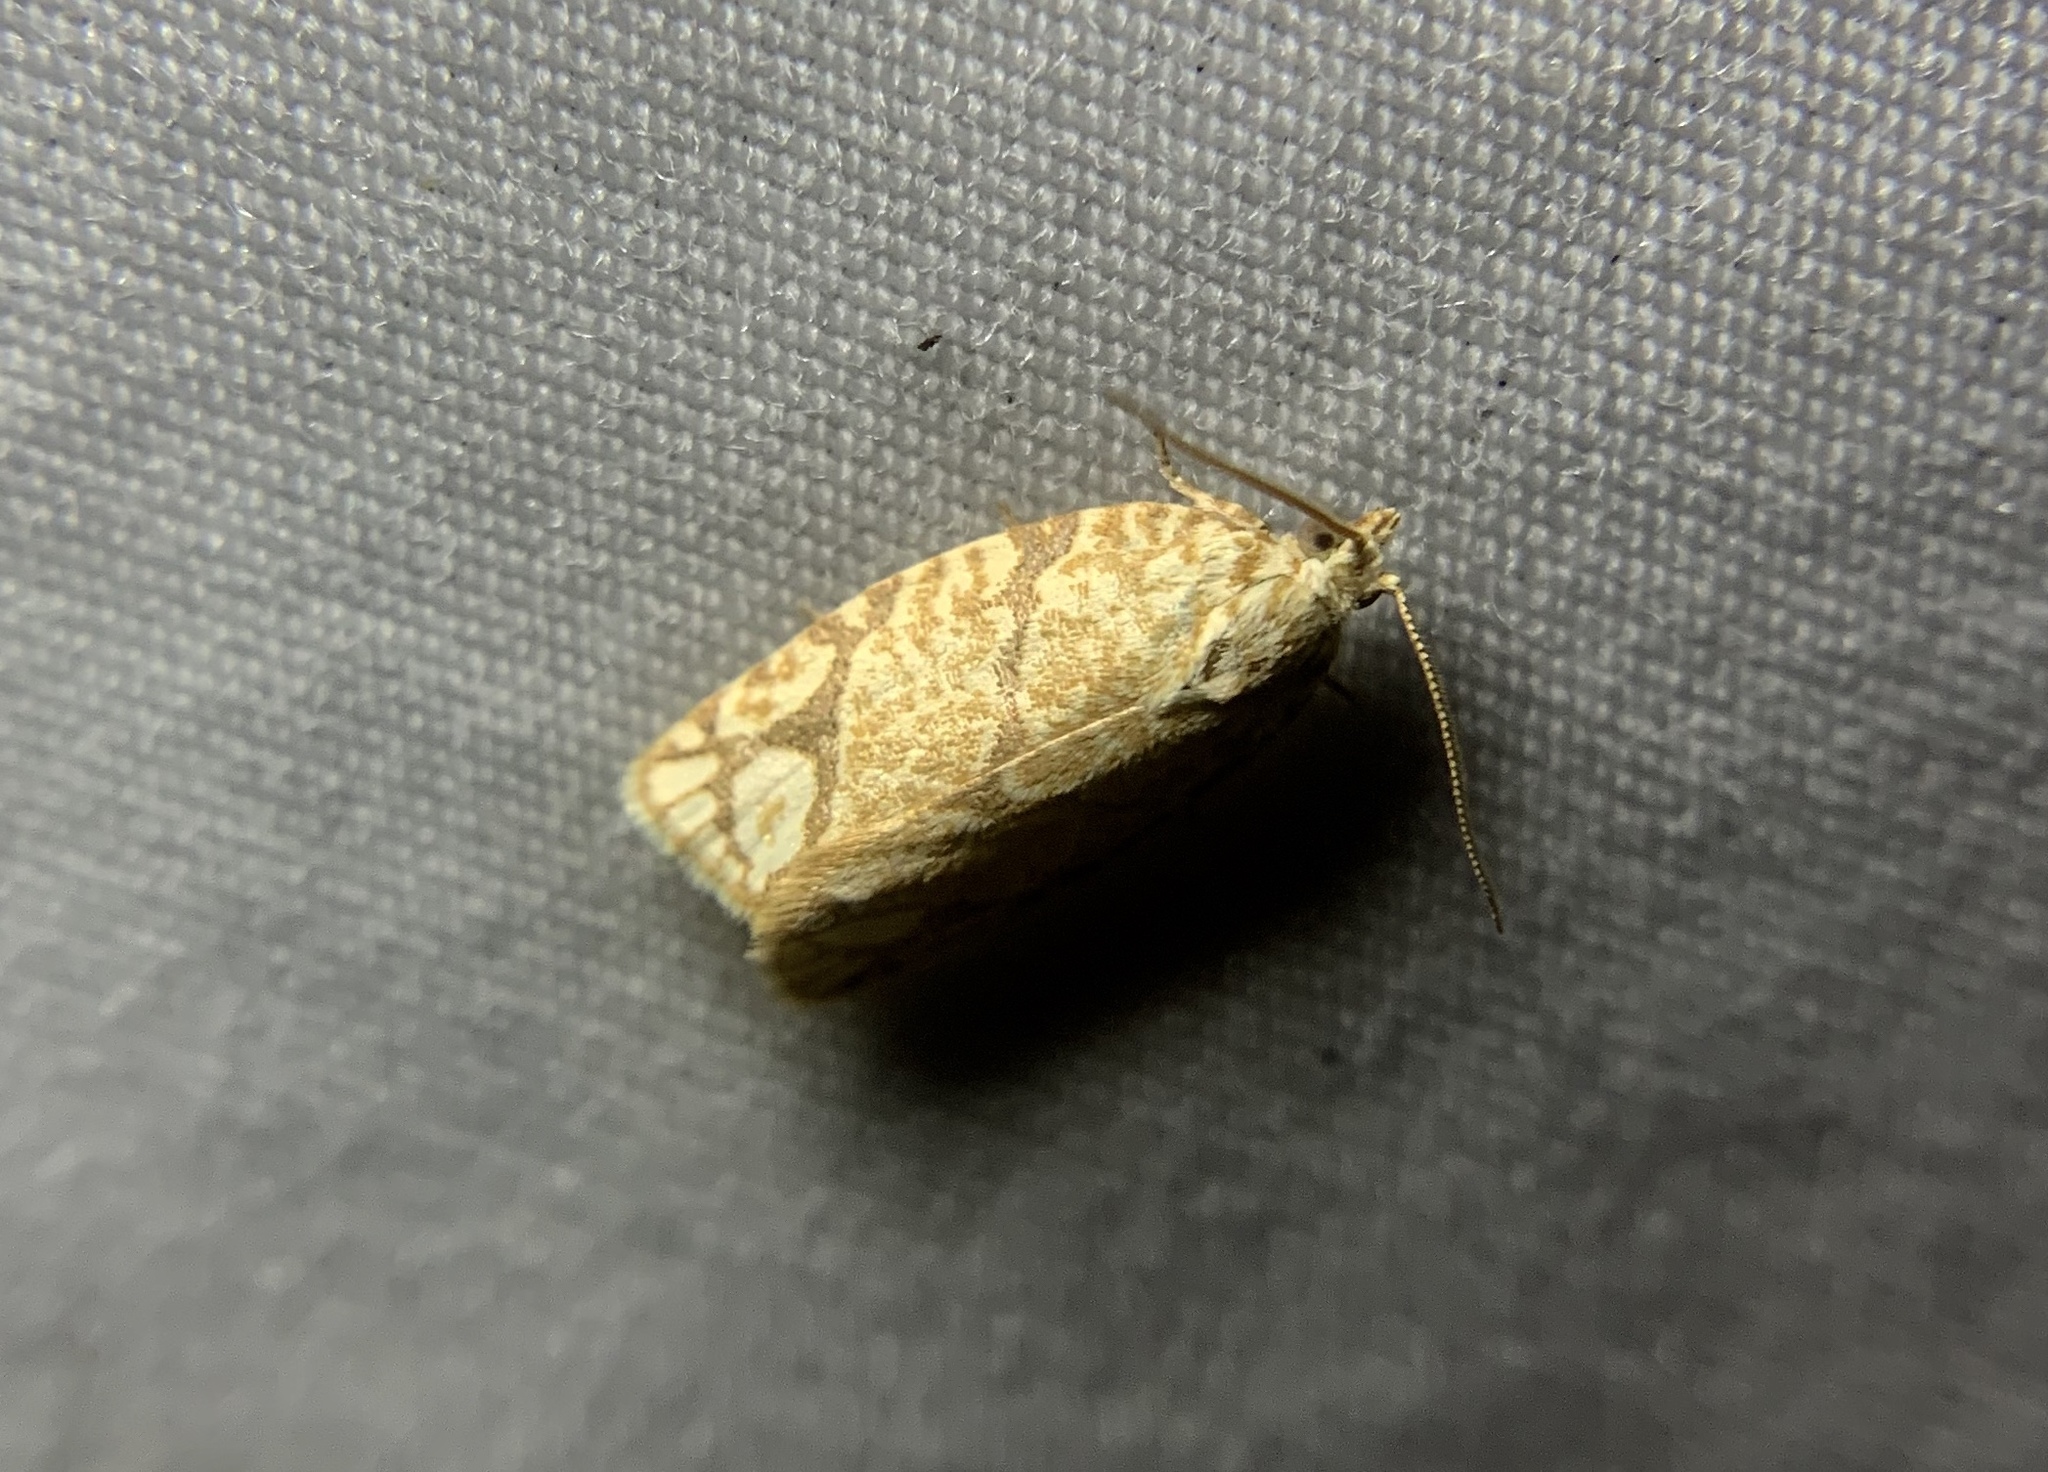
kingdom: Animalia
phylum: Arthropoda
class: Insecta
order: Lepidoptera
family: Tortricidae
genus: Argyrotaenia
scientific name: Argyrotaenia quercifoliana
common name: Yellow-winged oak leafroller moth
